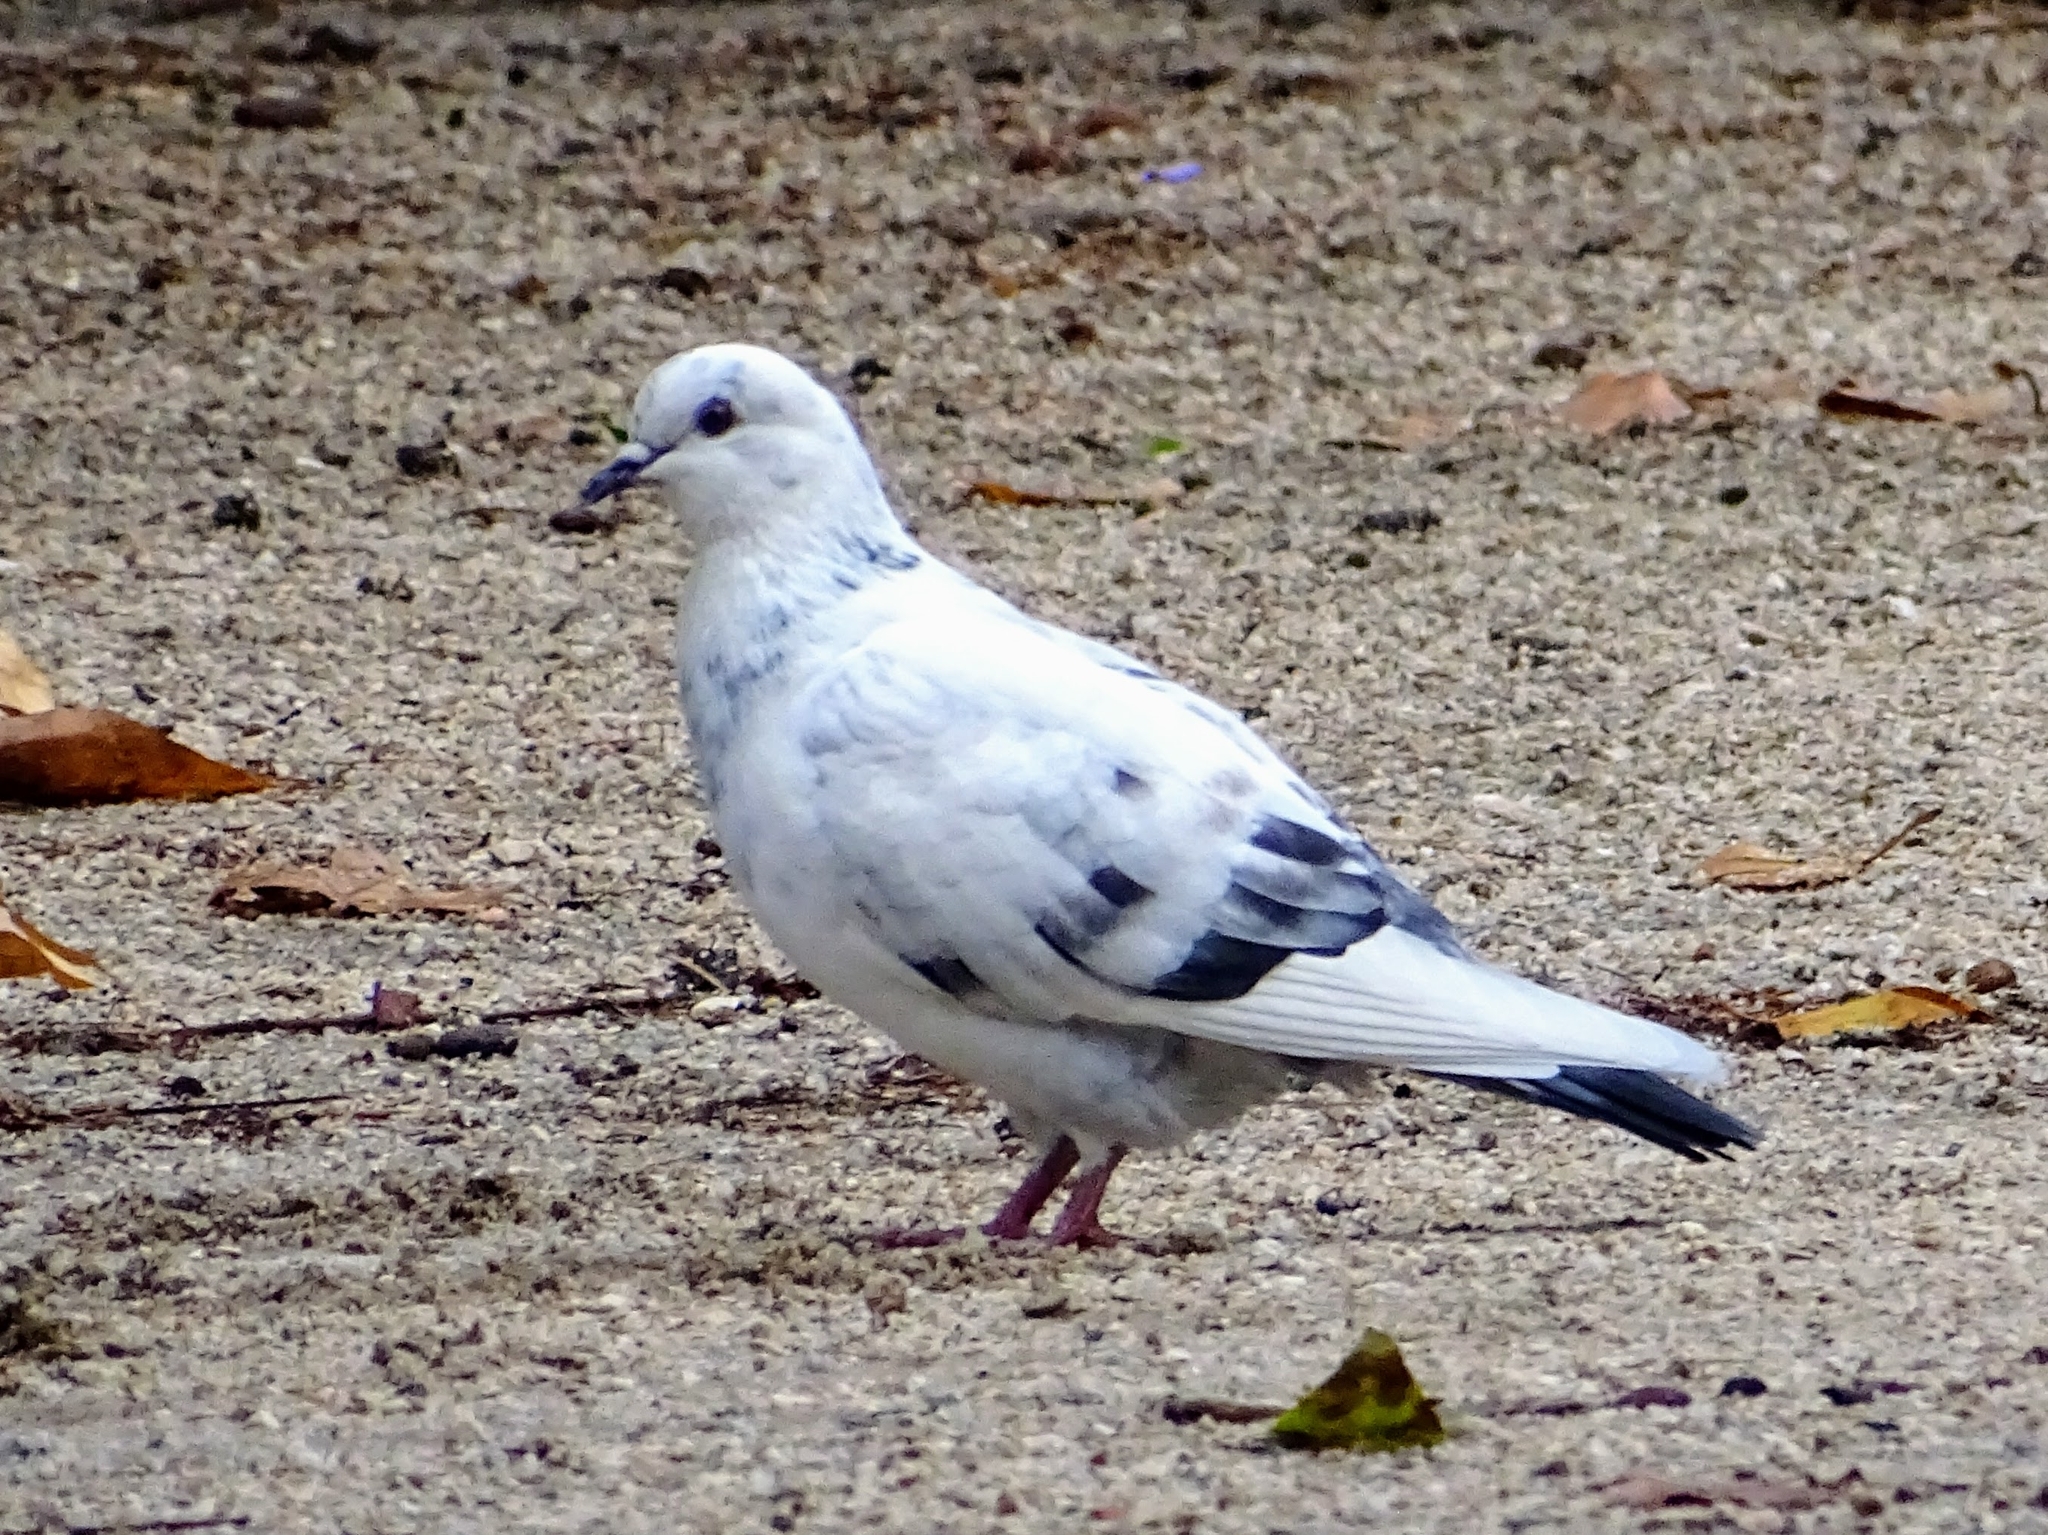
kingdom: Animalia
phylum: Chordata
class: Aves
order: Columbiformes
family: Columbidae
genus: Columba
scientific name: Columba livia
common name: Rock pigeon
